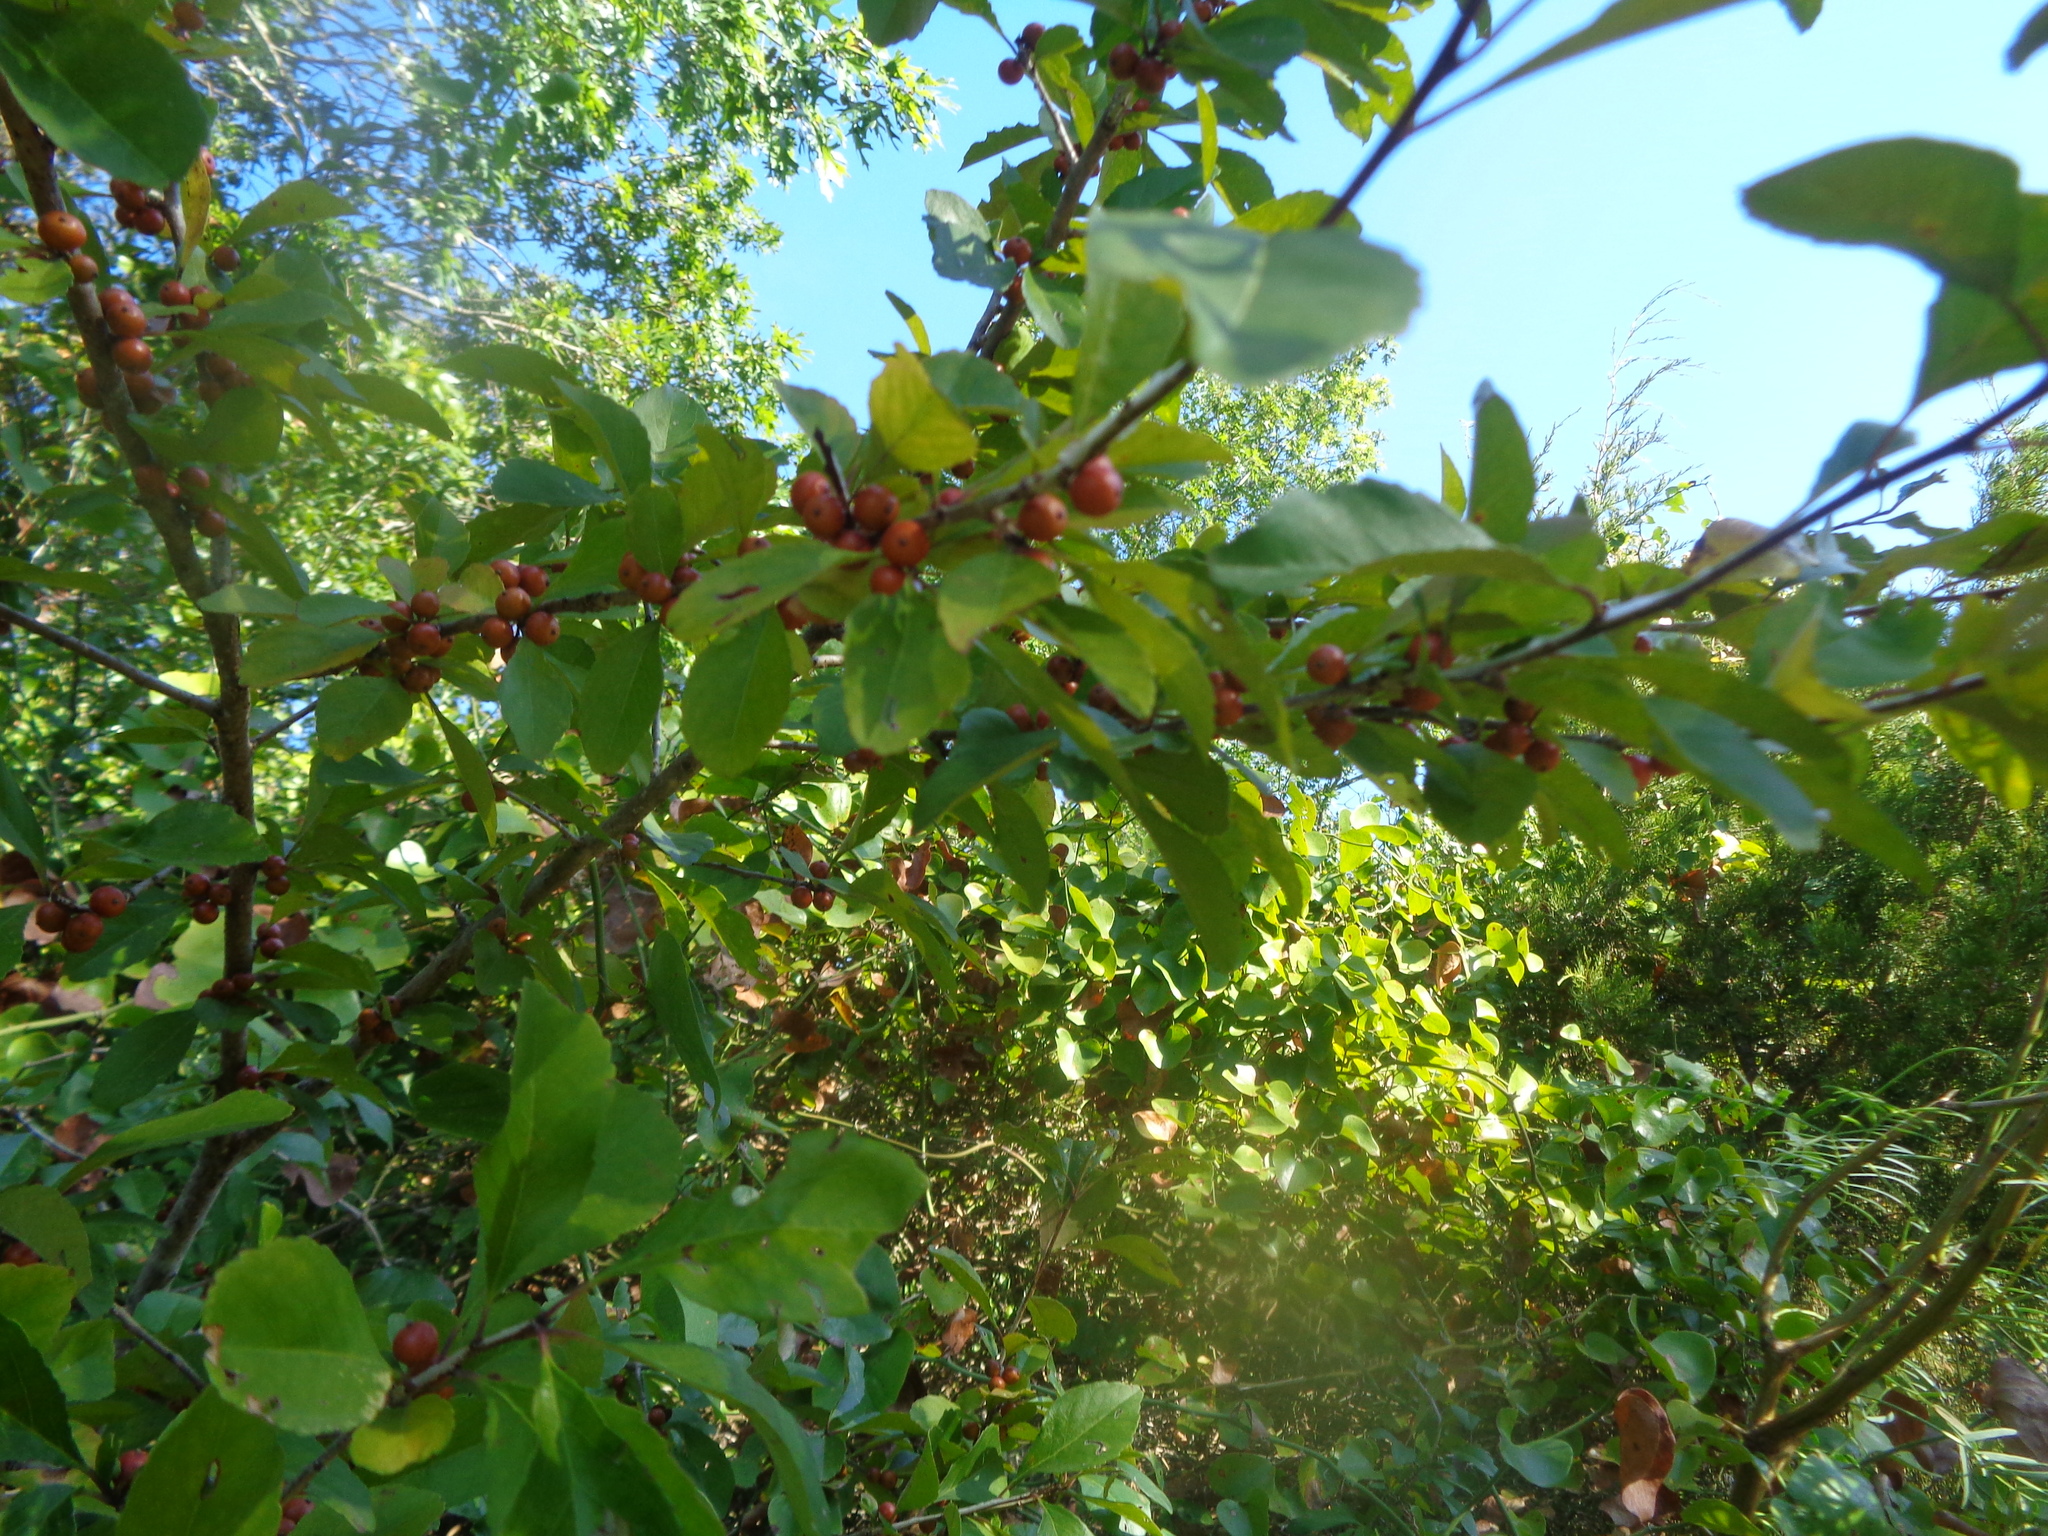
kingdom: Plantae
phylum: Tracheophyta
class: Magnoliopsida
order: Aquifoliales
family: Aquifoliaceae
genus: Ilex
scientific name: Ilex decidua
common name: Possum-haw
